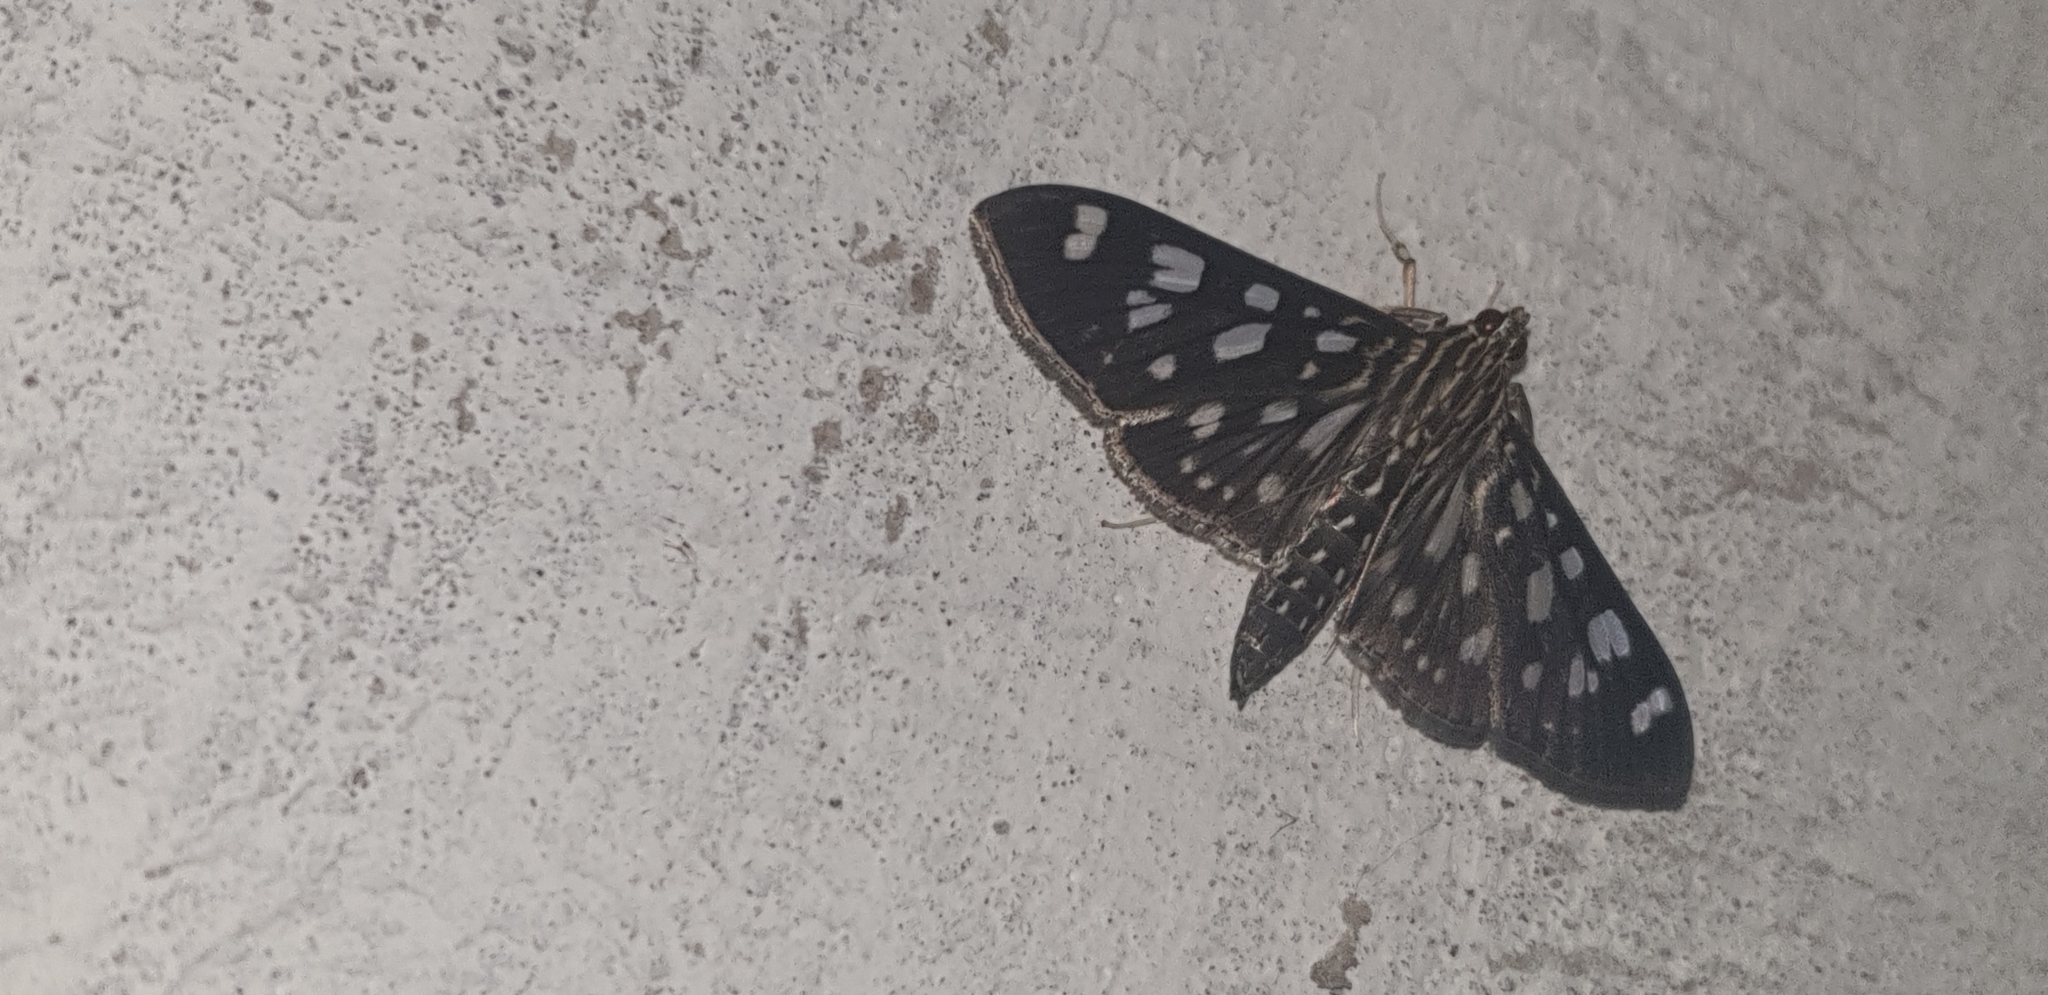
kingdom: Animalia
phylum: Arthropoda
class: Insecta
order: Lepidoptera
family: Crambidae
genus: Pygospila
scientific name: Pygospila tyres
